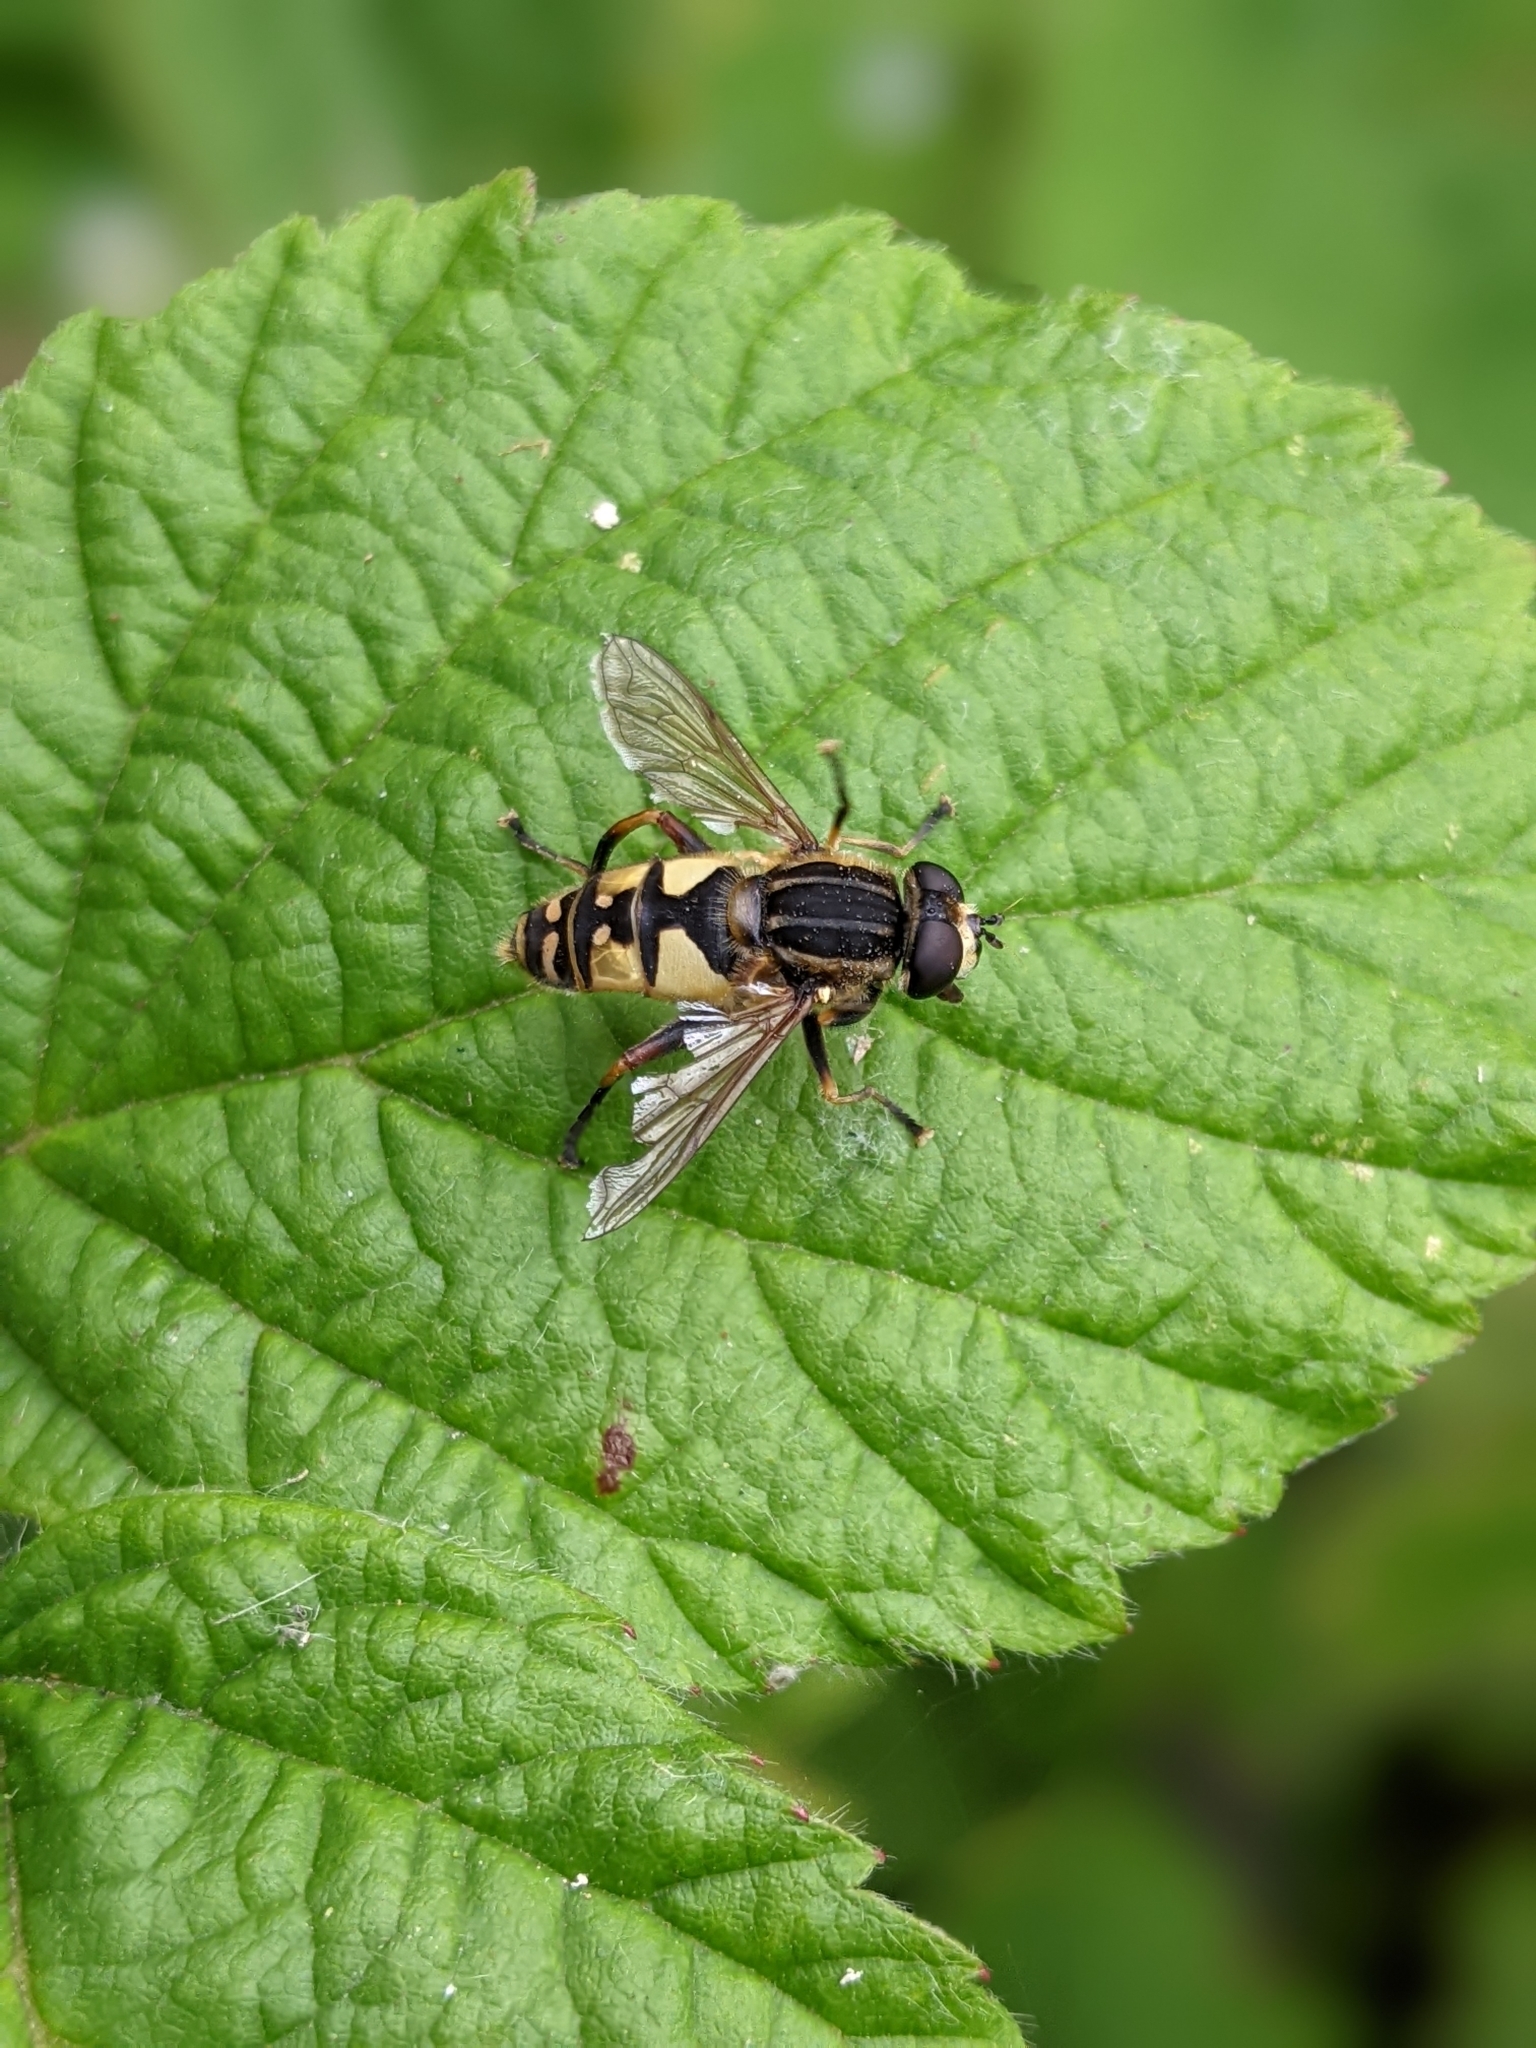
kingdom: Animalia
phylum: Arthropoda
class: Insecta
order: Diptera
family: Syrphidae
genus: Helophilus
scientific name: Helophilus pendulus
